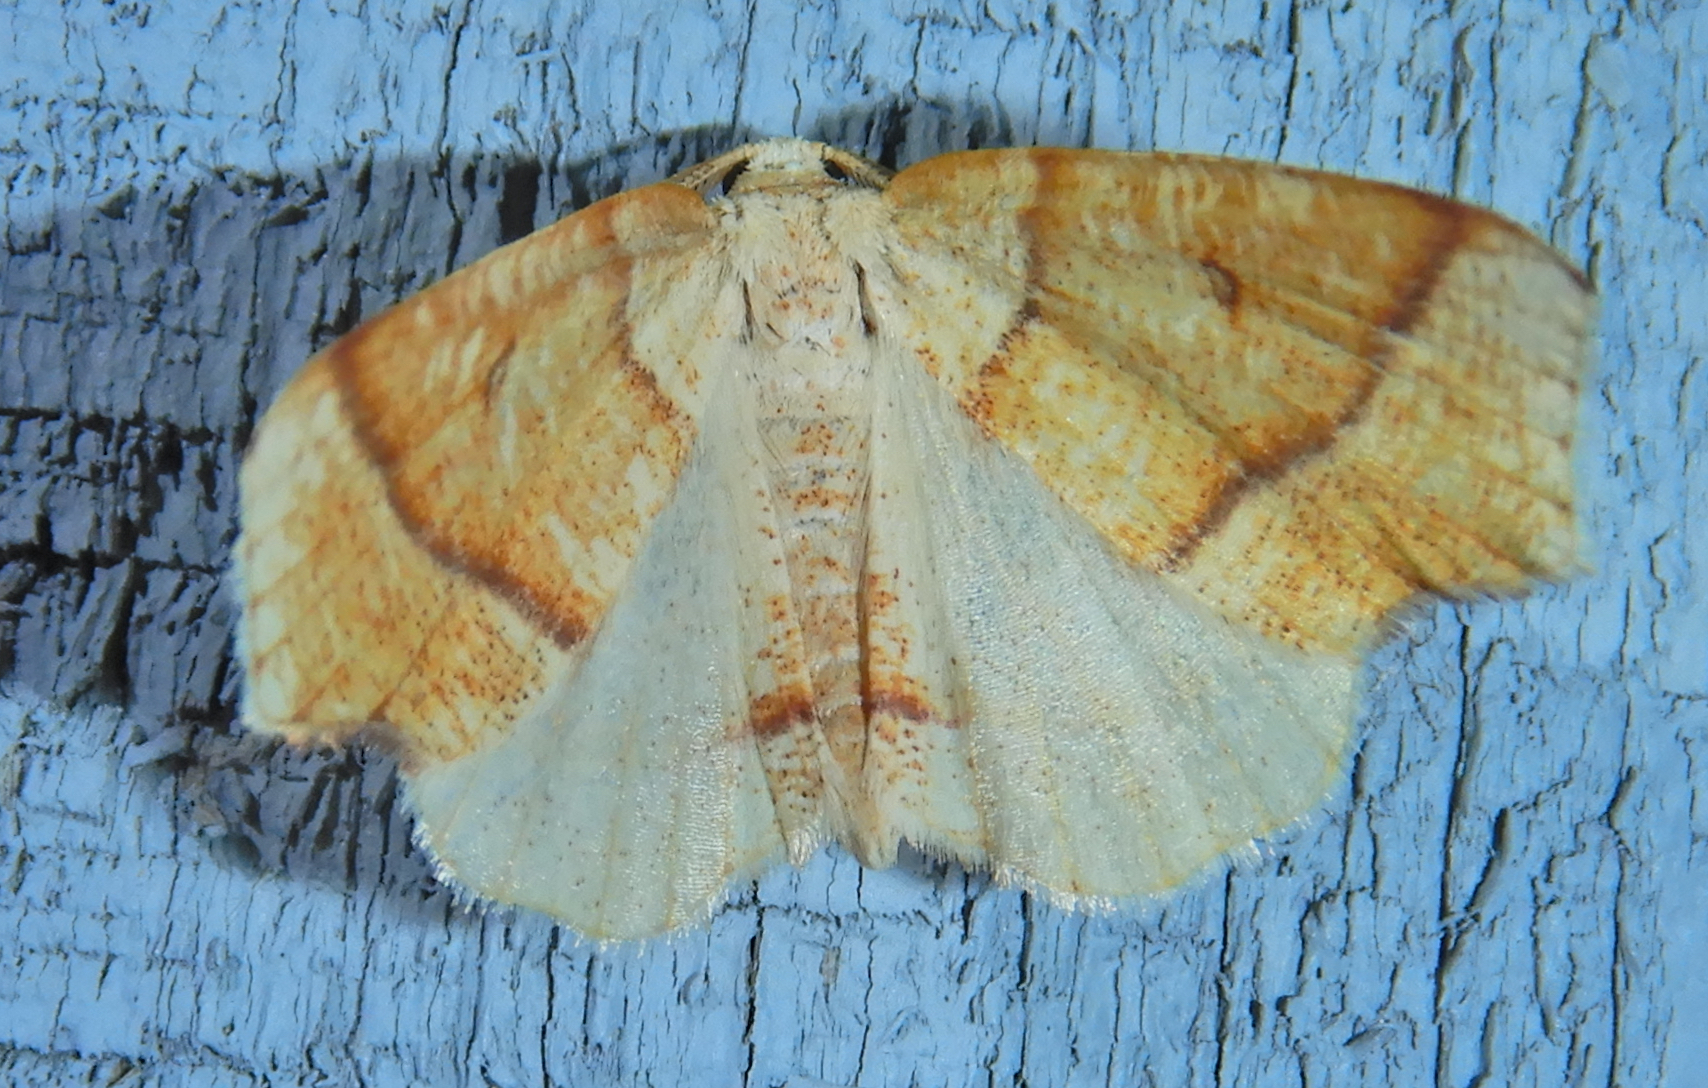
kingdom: Animalia
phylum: Arthropoda
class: Insecta
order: Lepidoptera
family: Geometridae
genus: Plagodis
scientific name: Plagodis alcoolaria
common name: Hollow-spotted plagodis
